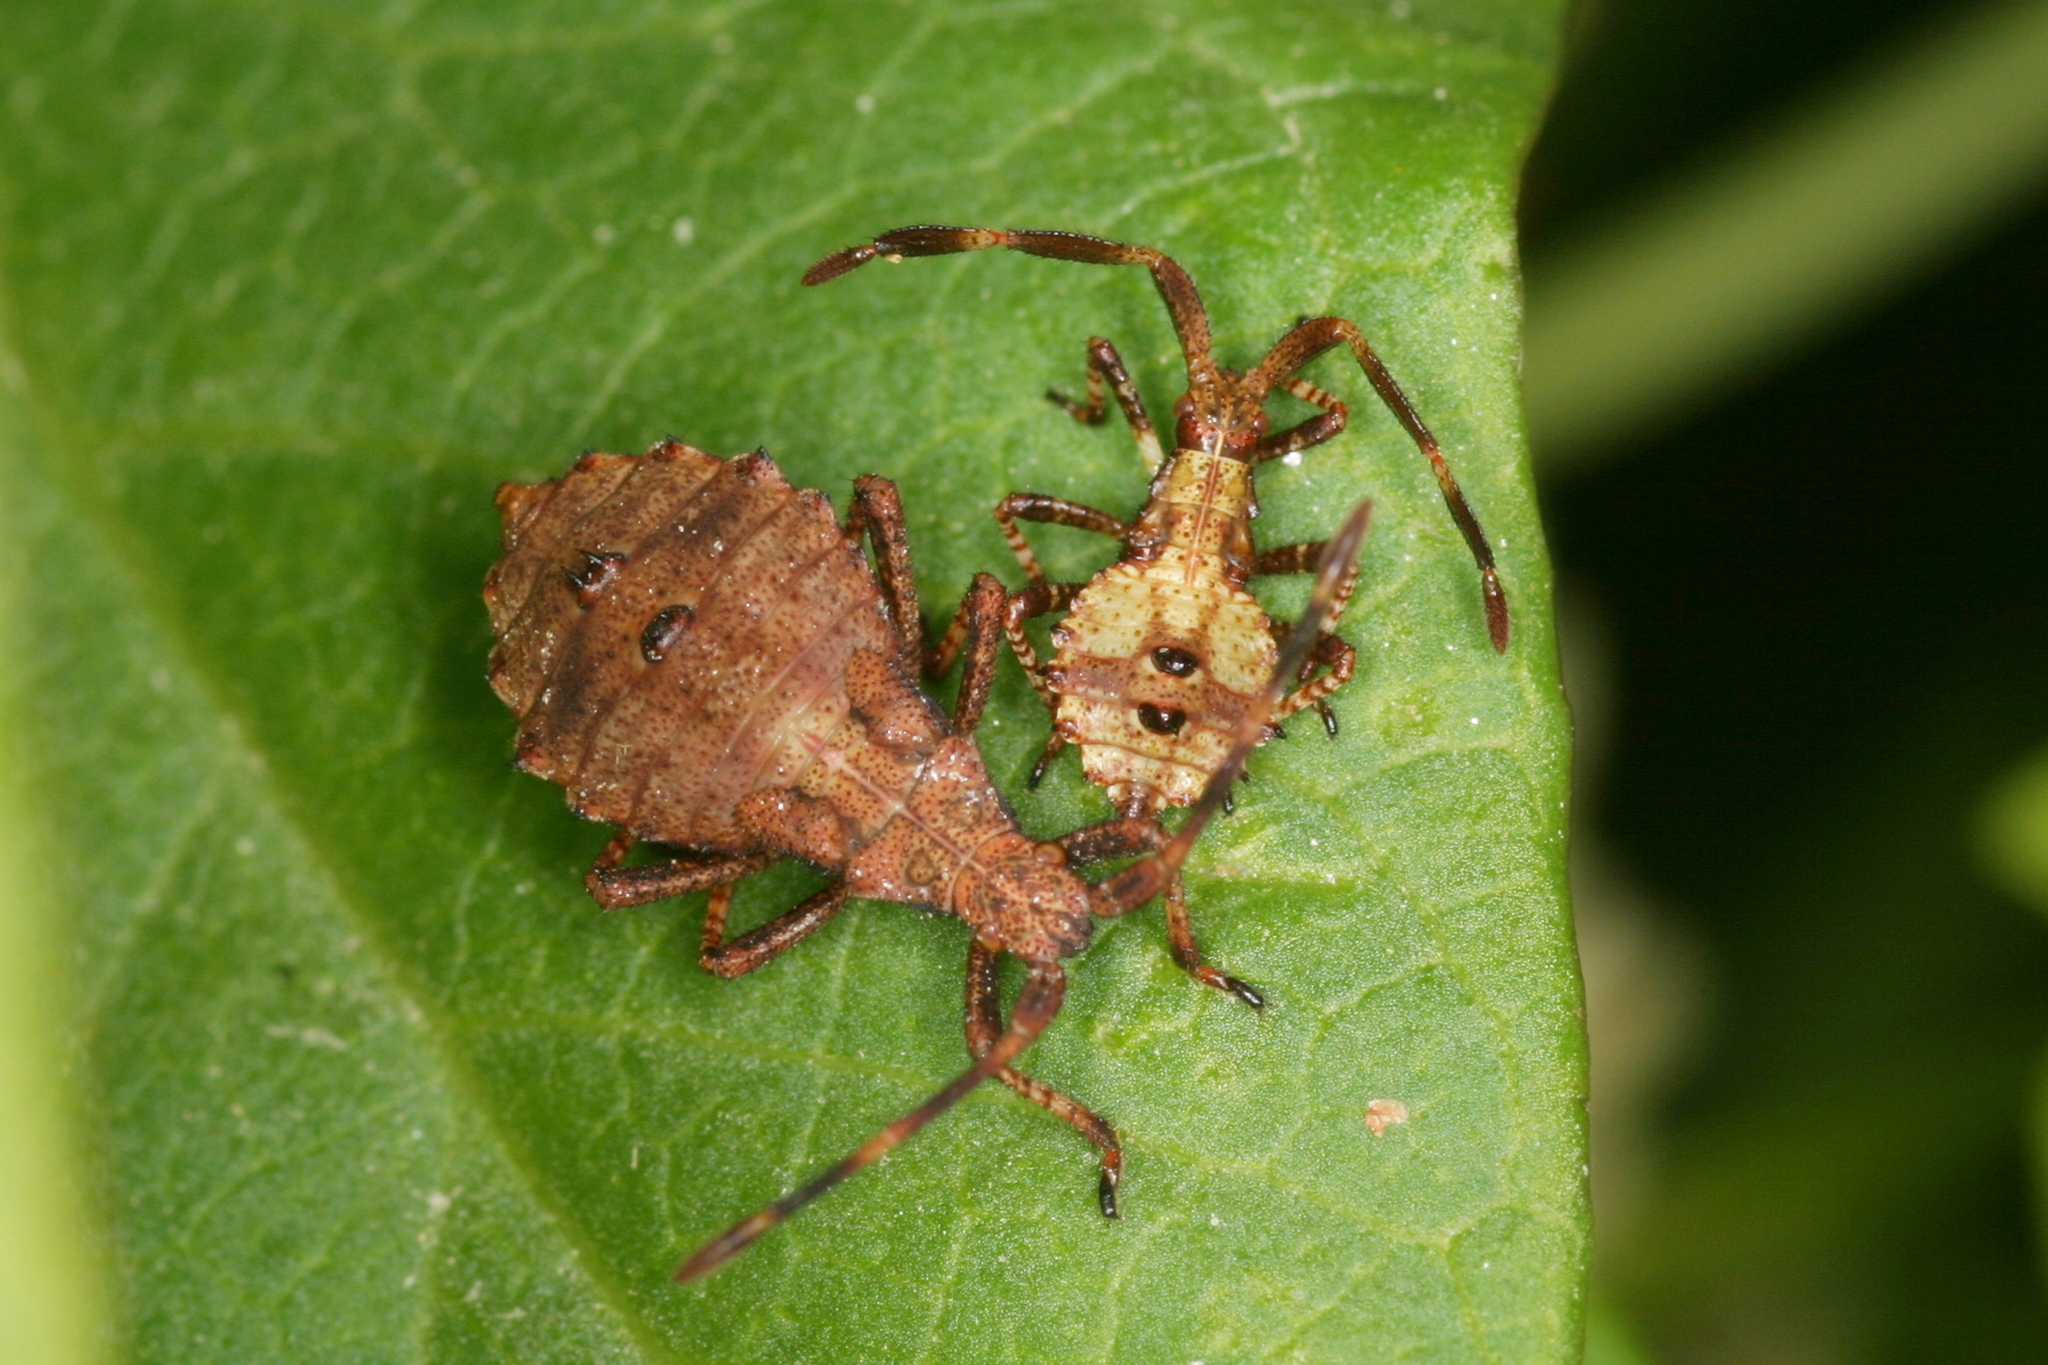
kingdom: Animalia
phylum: Arthropoda
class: Insecta
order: Hemiptera
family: Coreidae
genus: Coreus
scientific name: Coreus marginatus
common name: Dock bug
